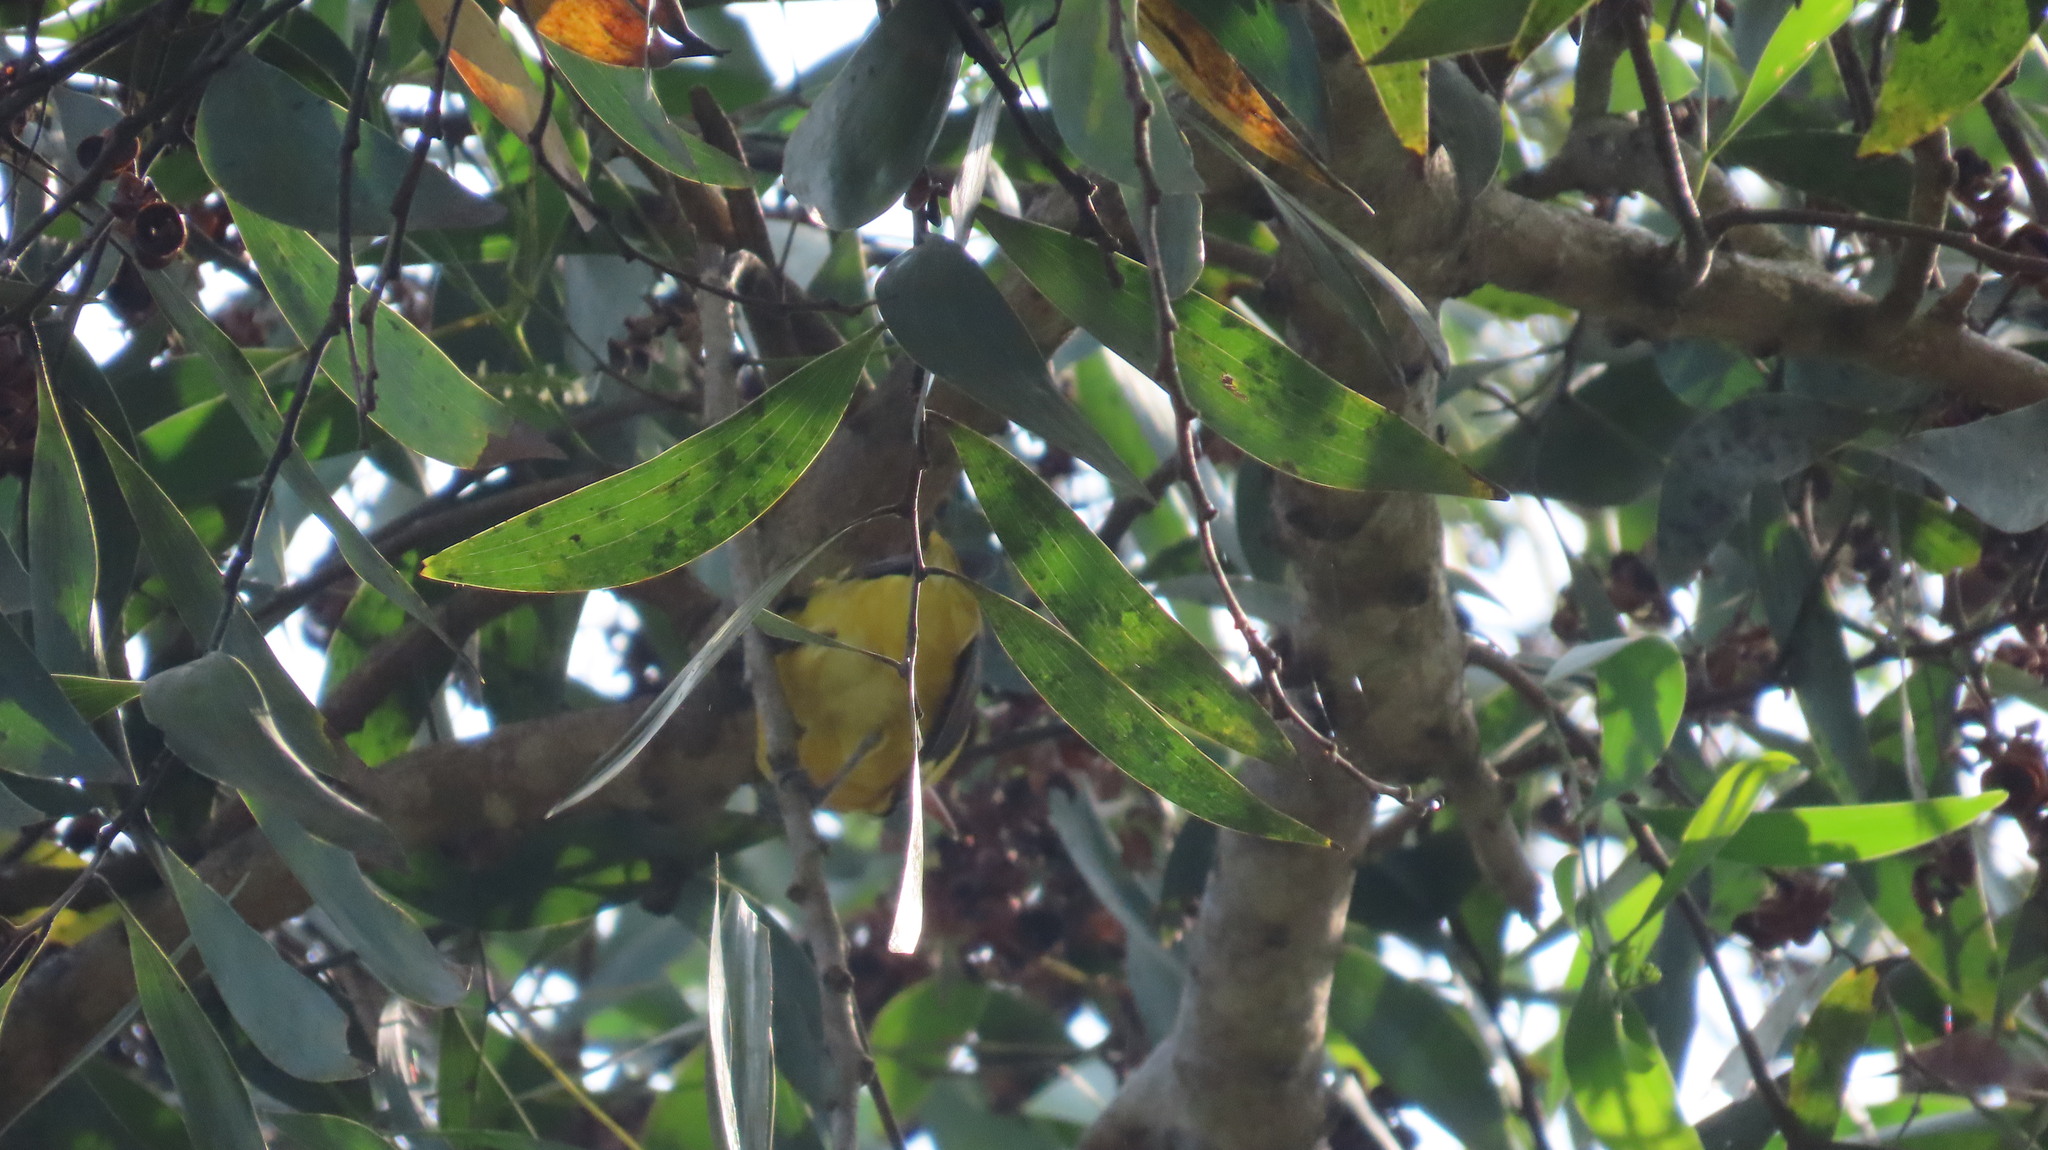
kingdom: Animalia
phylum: Chordata
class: Aves
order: Passeriformes
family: Oriolidae
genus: Oriolus
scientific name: Oriolus kundoo
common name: Indian golden oriole
